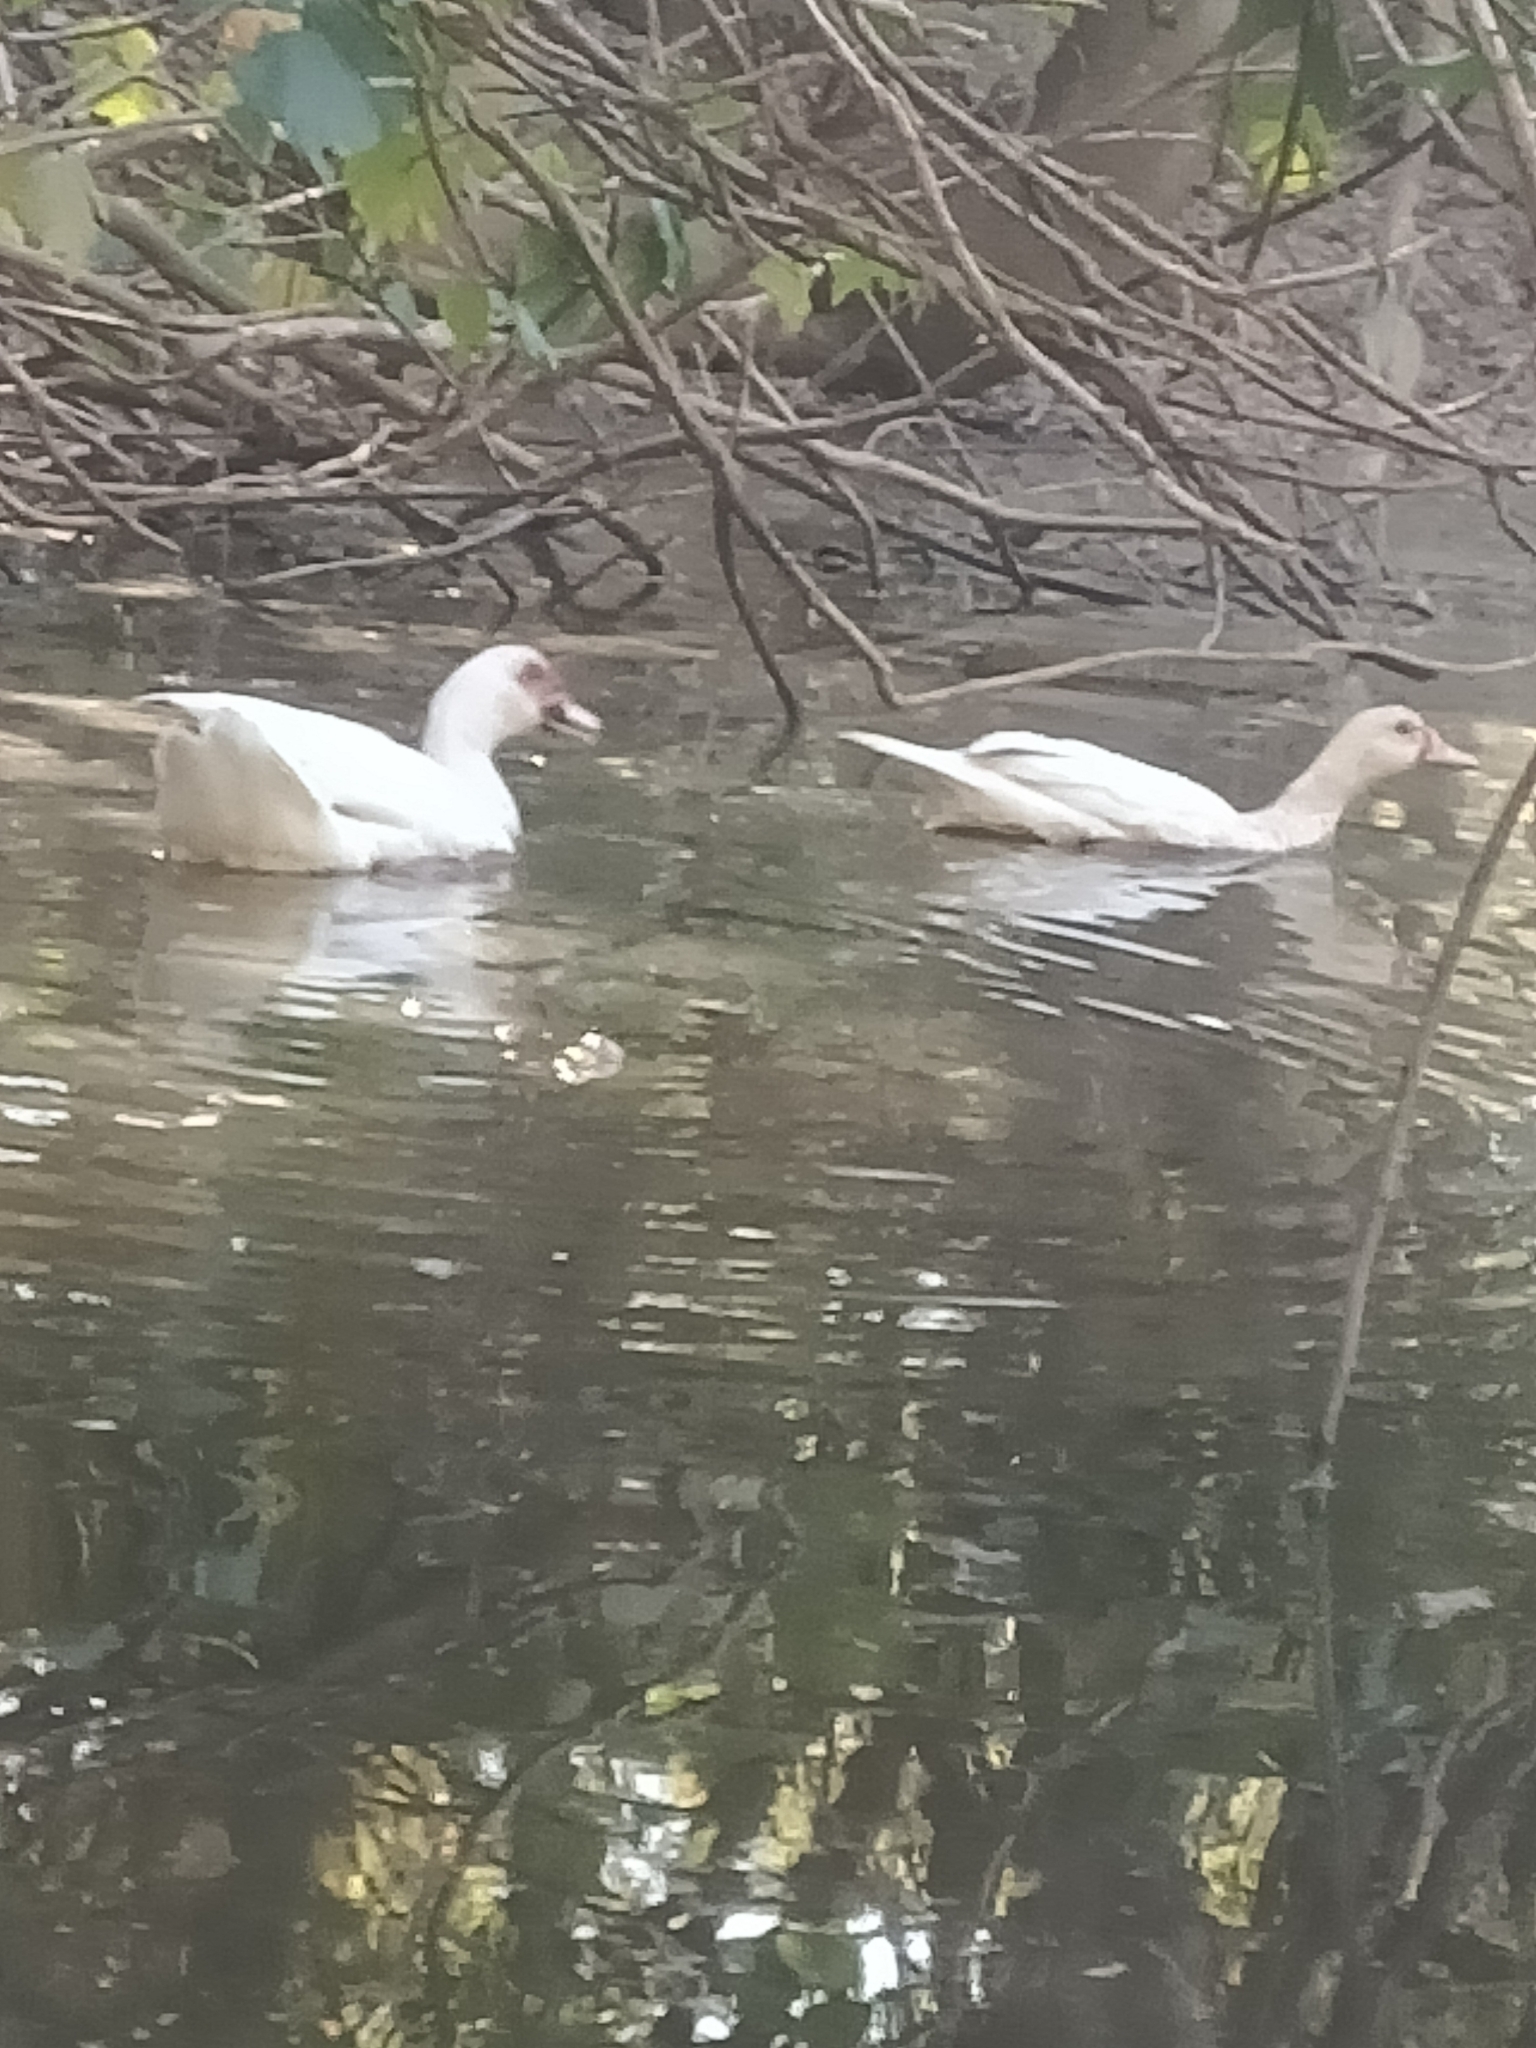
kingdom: Animalia
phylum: Chordata
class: Aves
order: Anseriformes
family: Anatidae
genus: Cairina
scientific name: Cairina moschata
